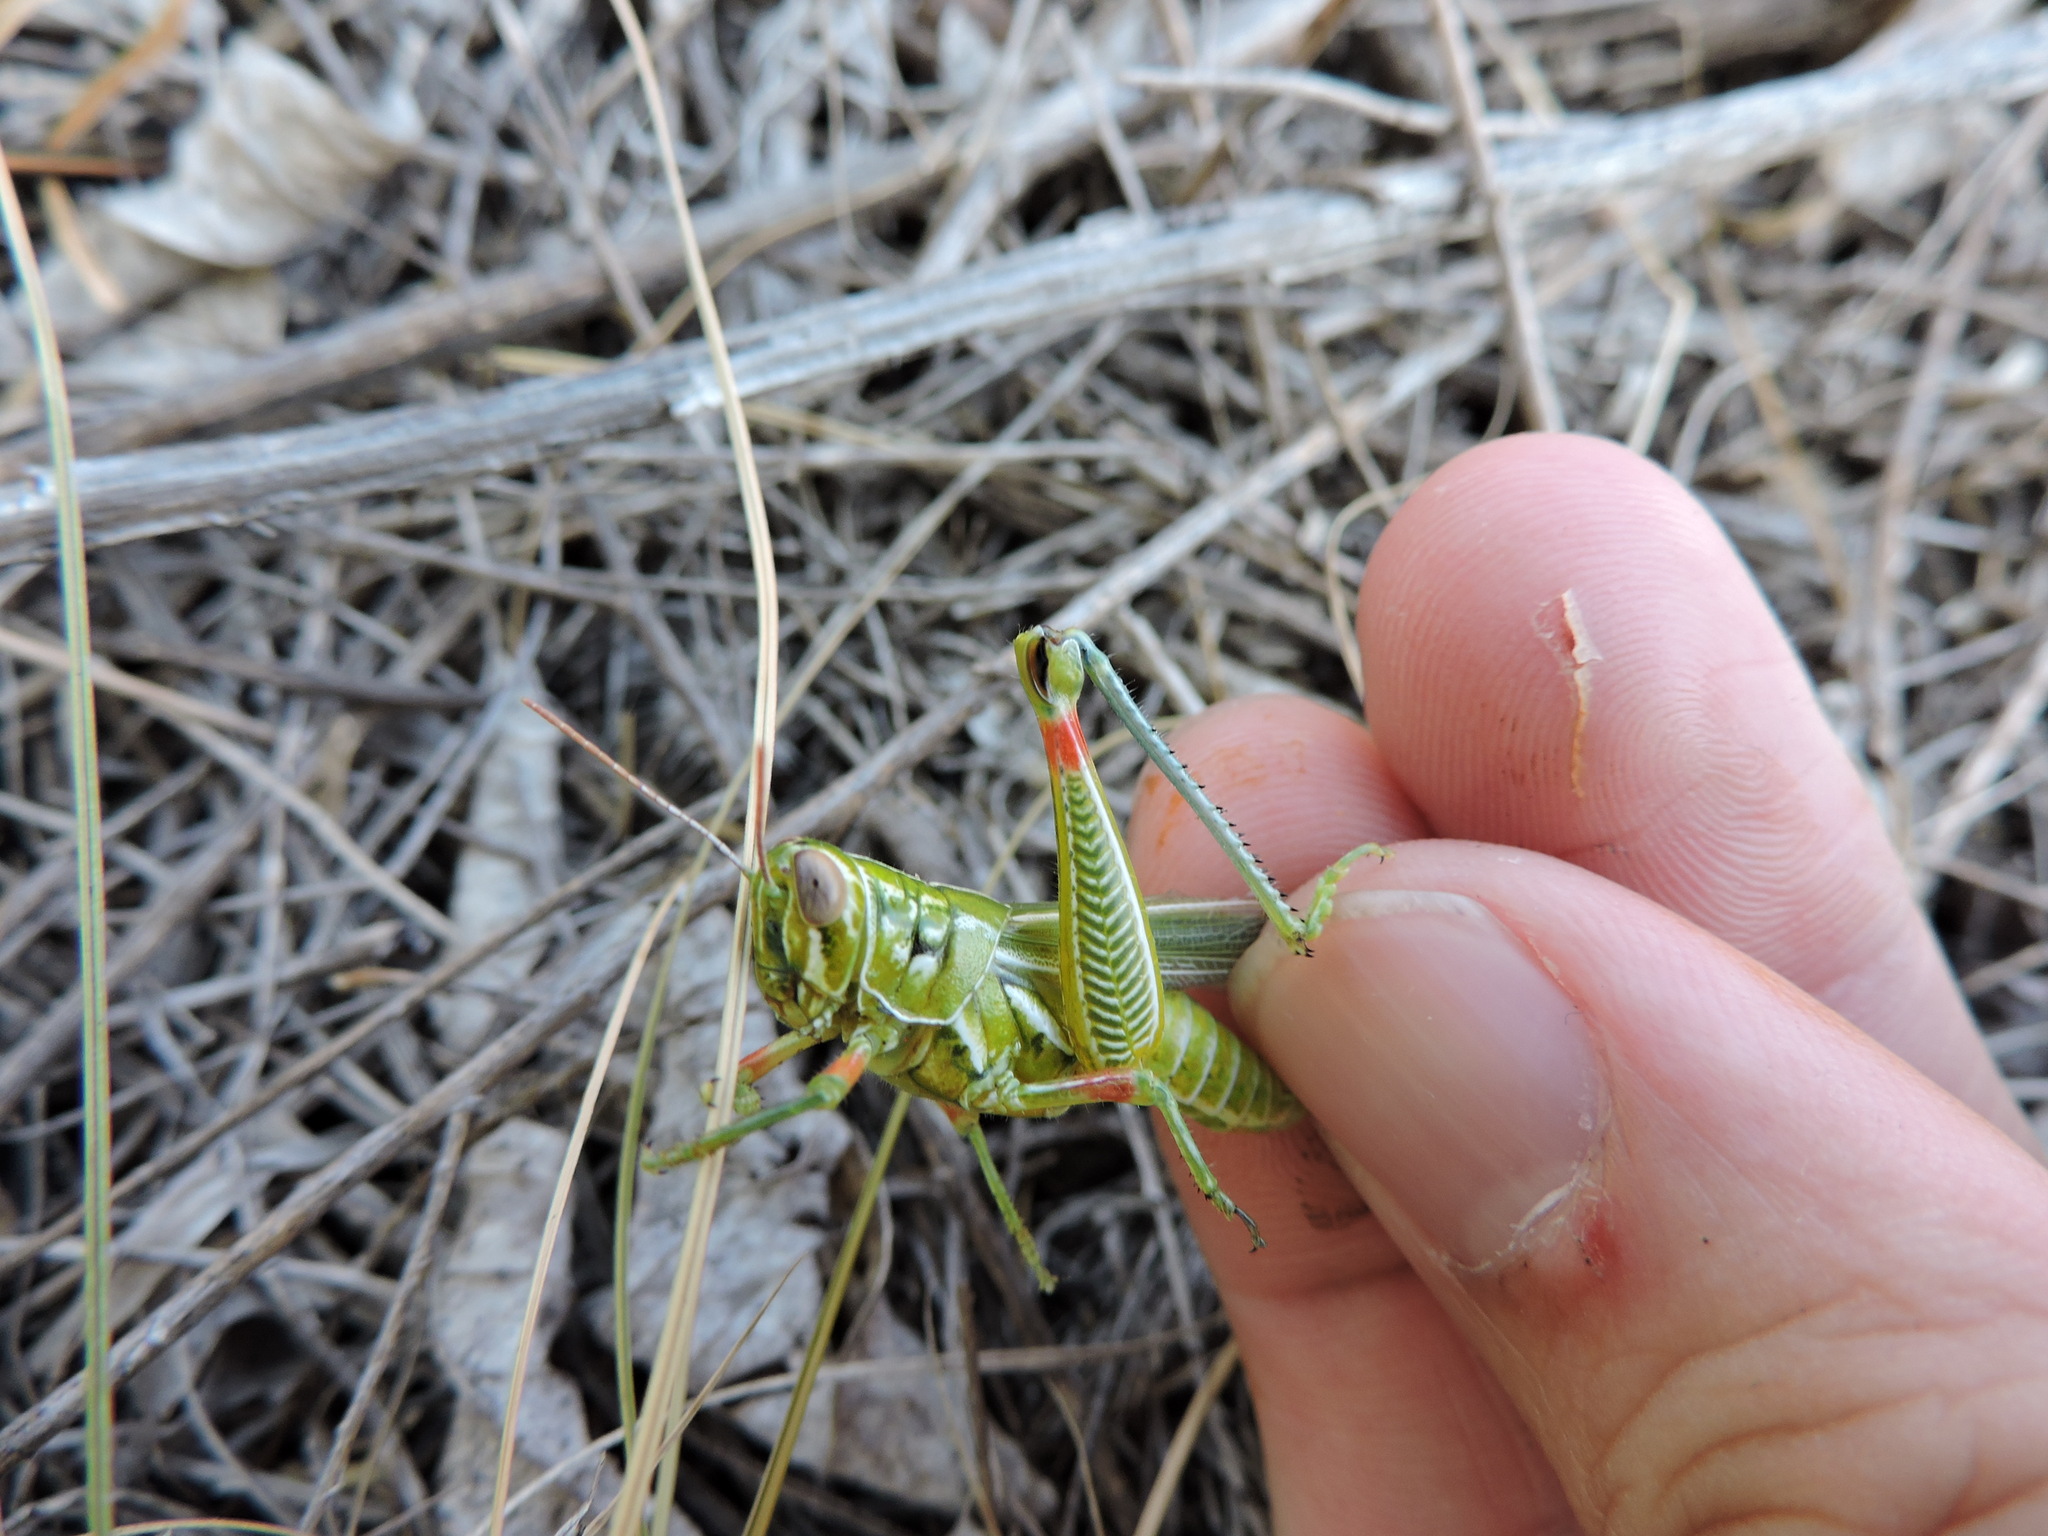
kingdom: Animalia
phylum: Arthropoda
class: Insecta
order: Orthoptera
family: Acrididae
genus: Hesperotettix
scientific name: Hesperotettix viridis
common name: Meadow purple-striped grasshopper
